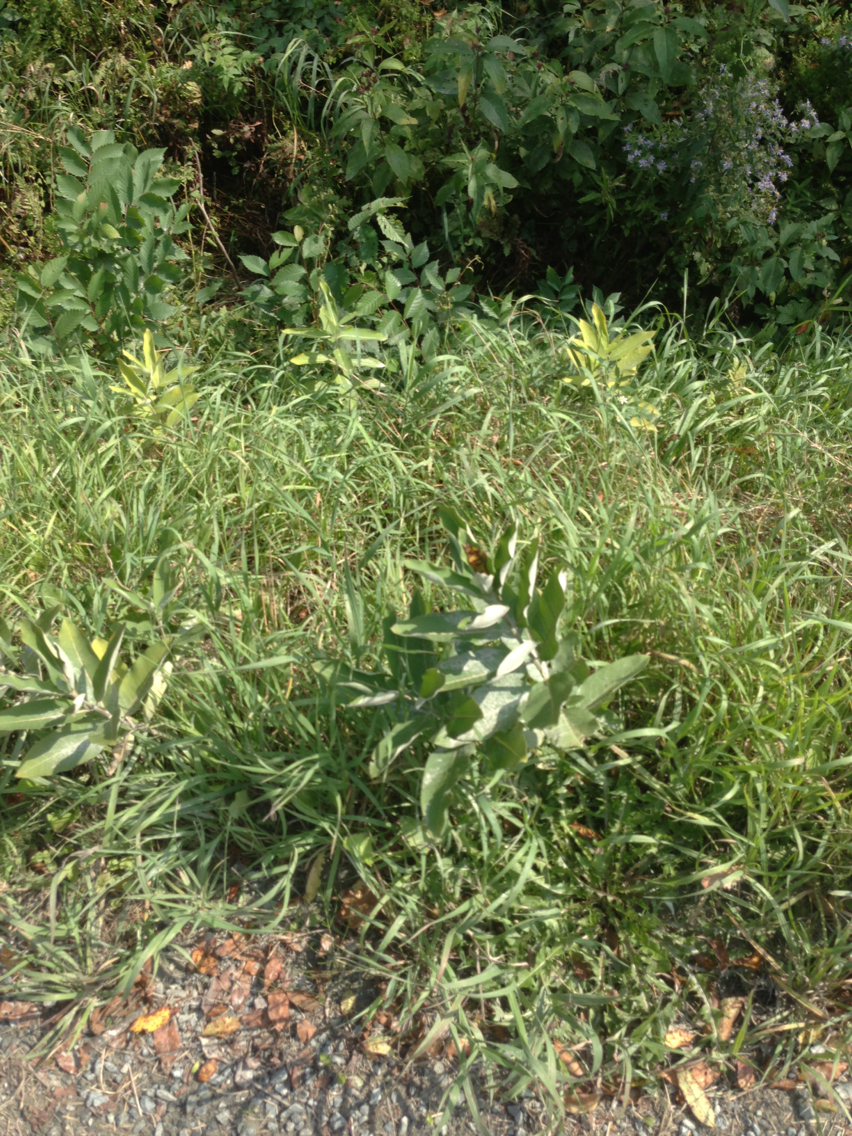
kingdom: Plantae
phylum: Tracheophyta
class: Magnoliopsida
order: Gentianales
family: Apocynaceae
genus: Asclepias
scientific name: Asclepias syriaca
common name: Common milkweed
